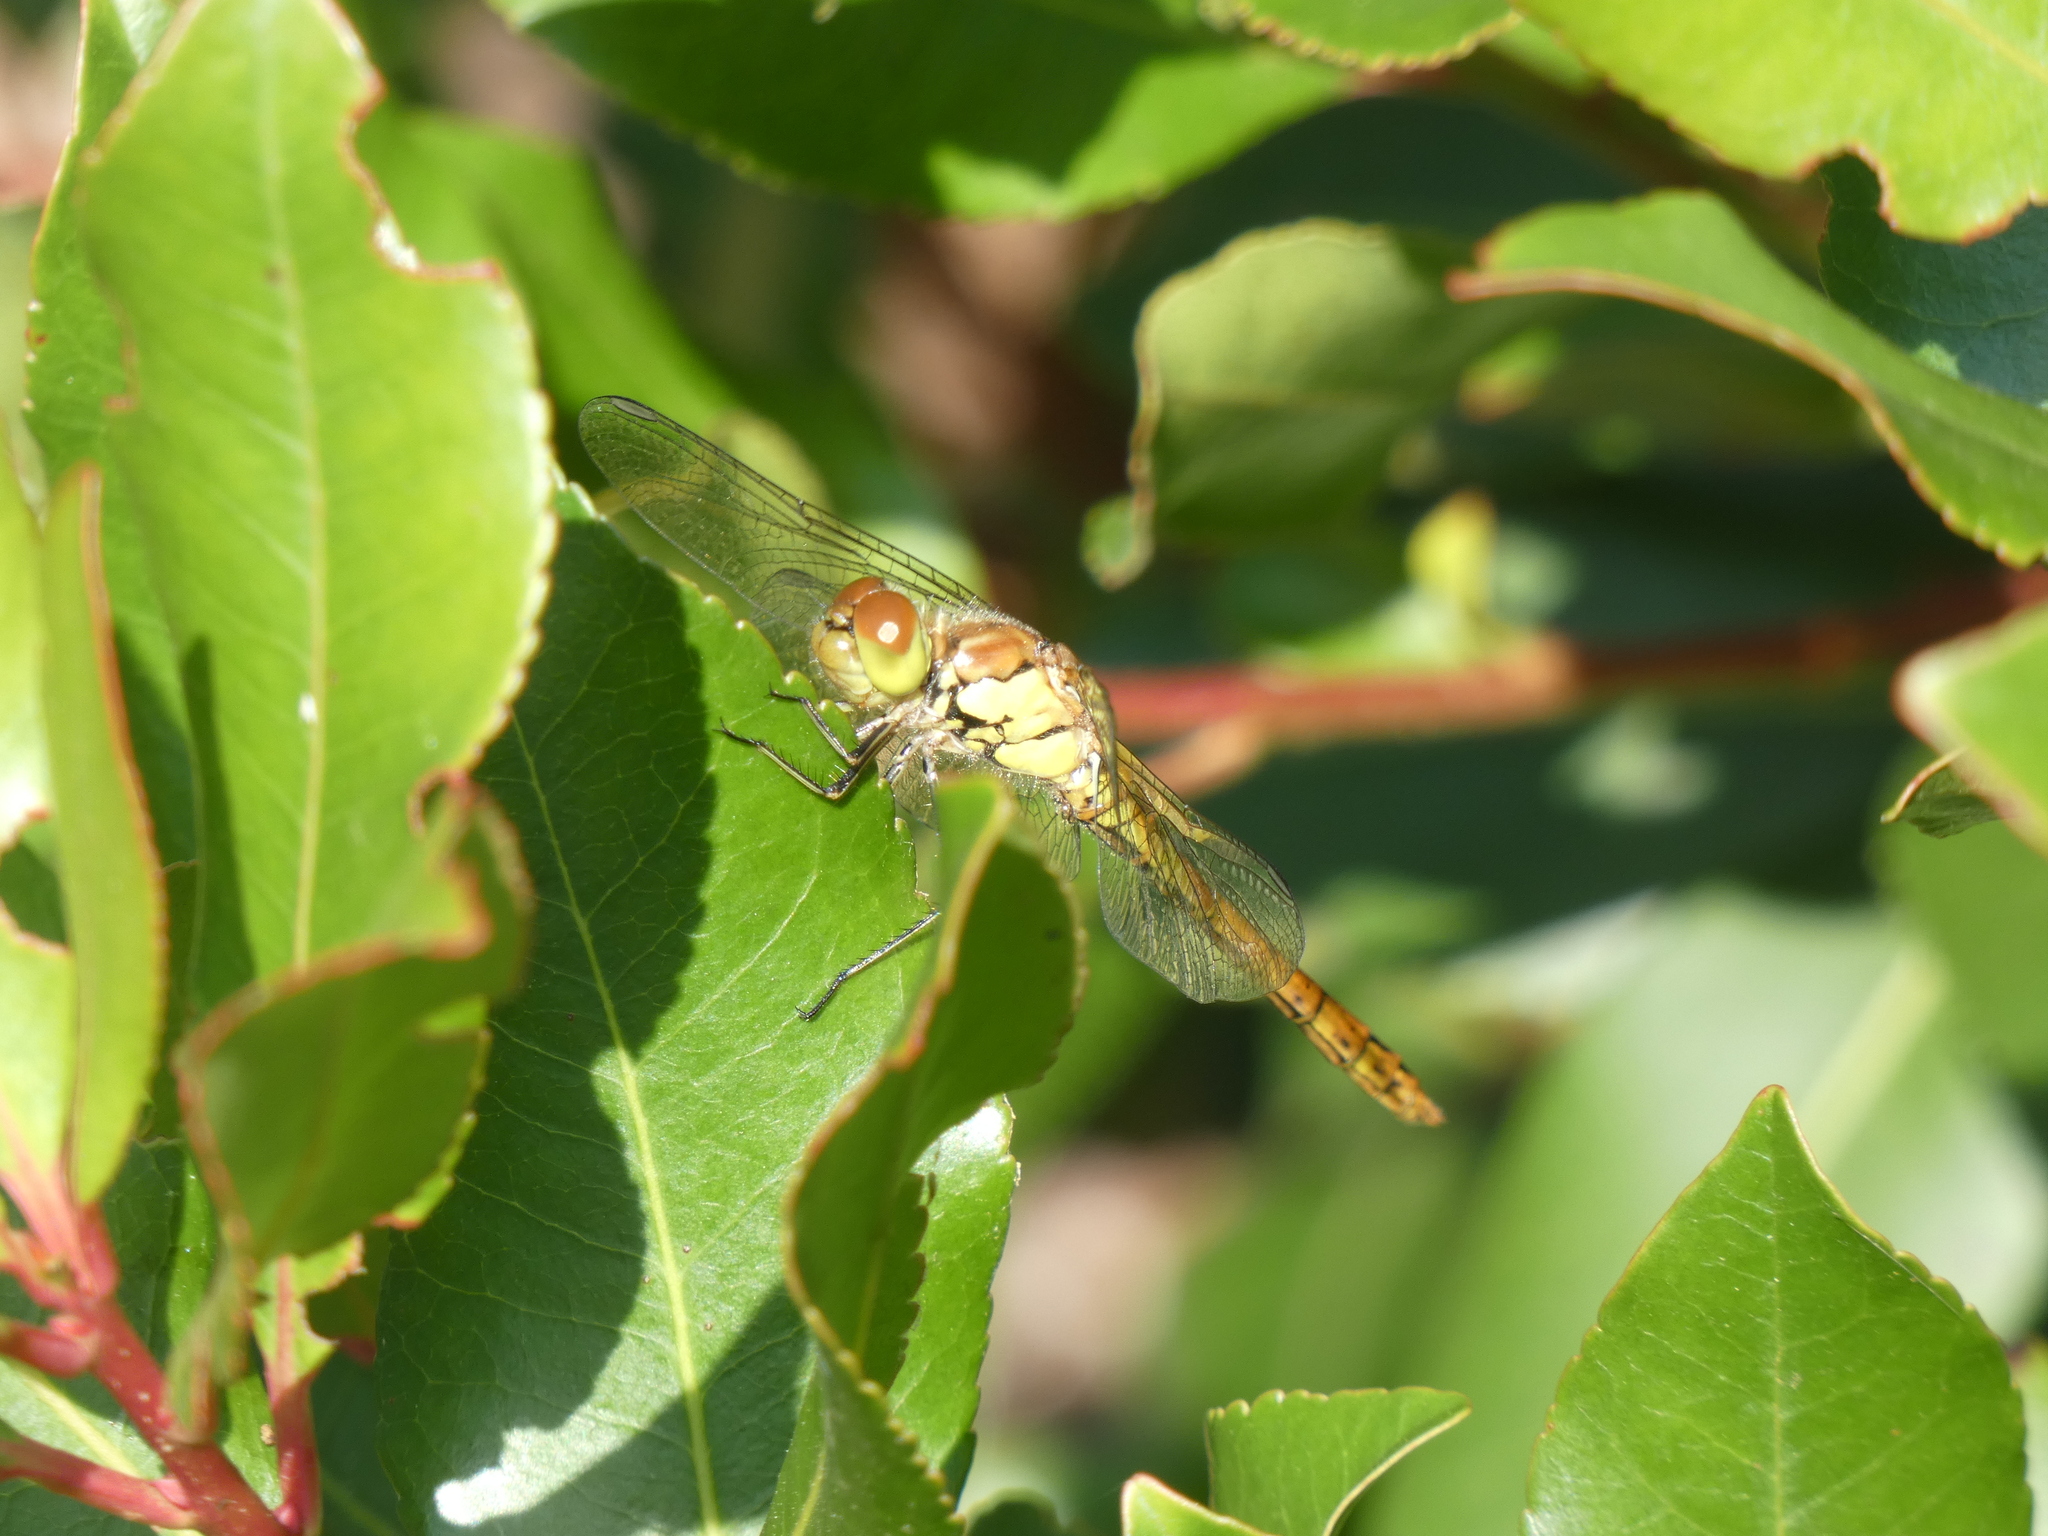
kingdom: Animalia
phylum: Arthropoda
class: Insecta
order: Odonata
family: Libellulidae
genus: Sympetrum
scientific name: Sympetrum striolatum
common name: Common darter
